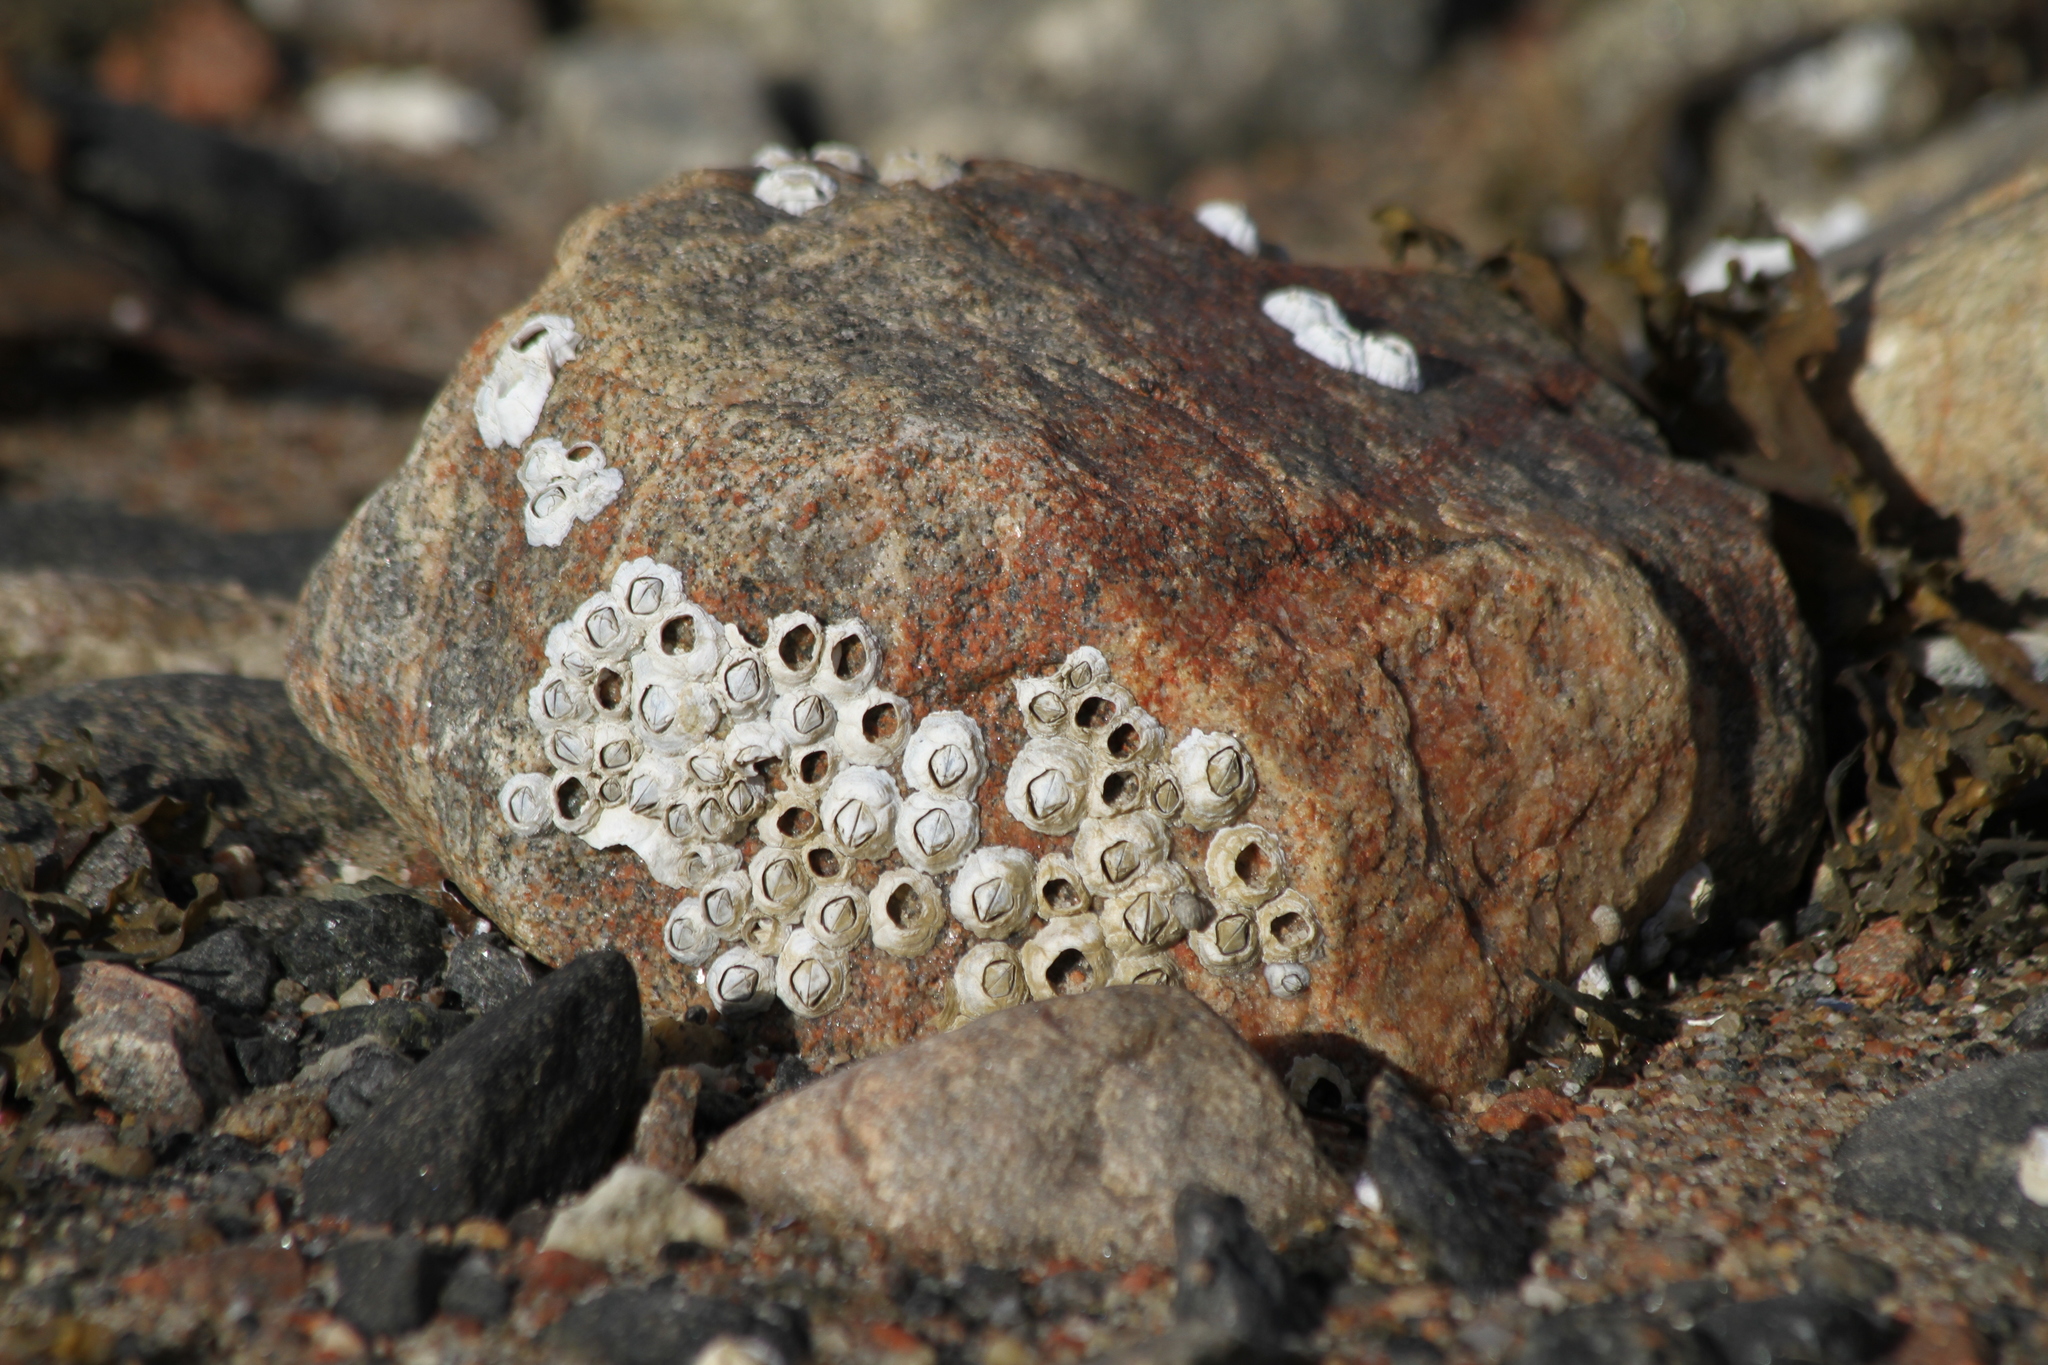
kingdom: Animalia
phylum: Arthropoda
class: Maxillopoda
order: Sessilia
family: Archaeobalanidae
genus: Semibalanus
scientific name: Semibalanus balanoides
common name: Acorn barnacle
